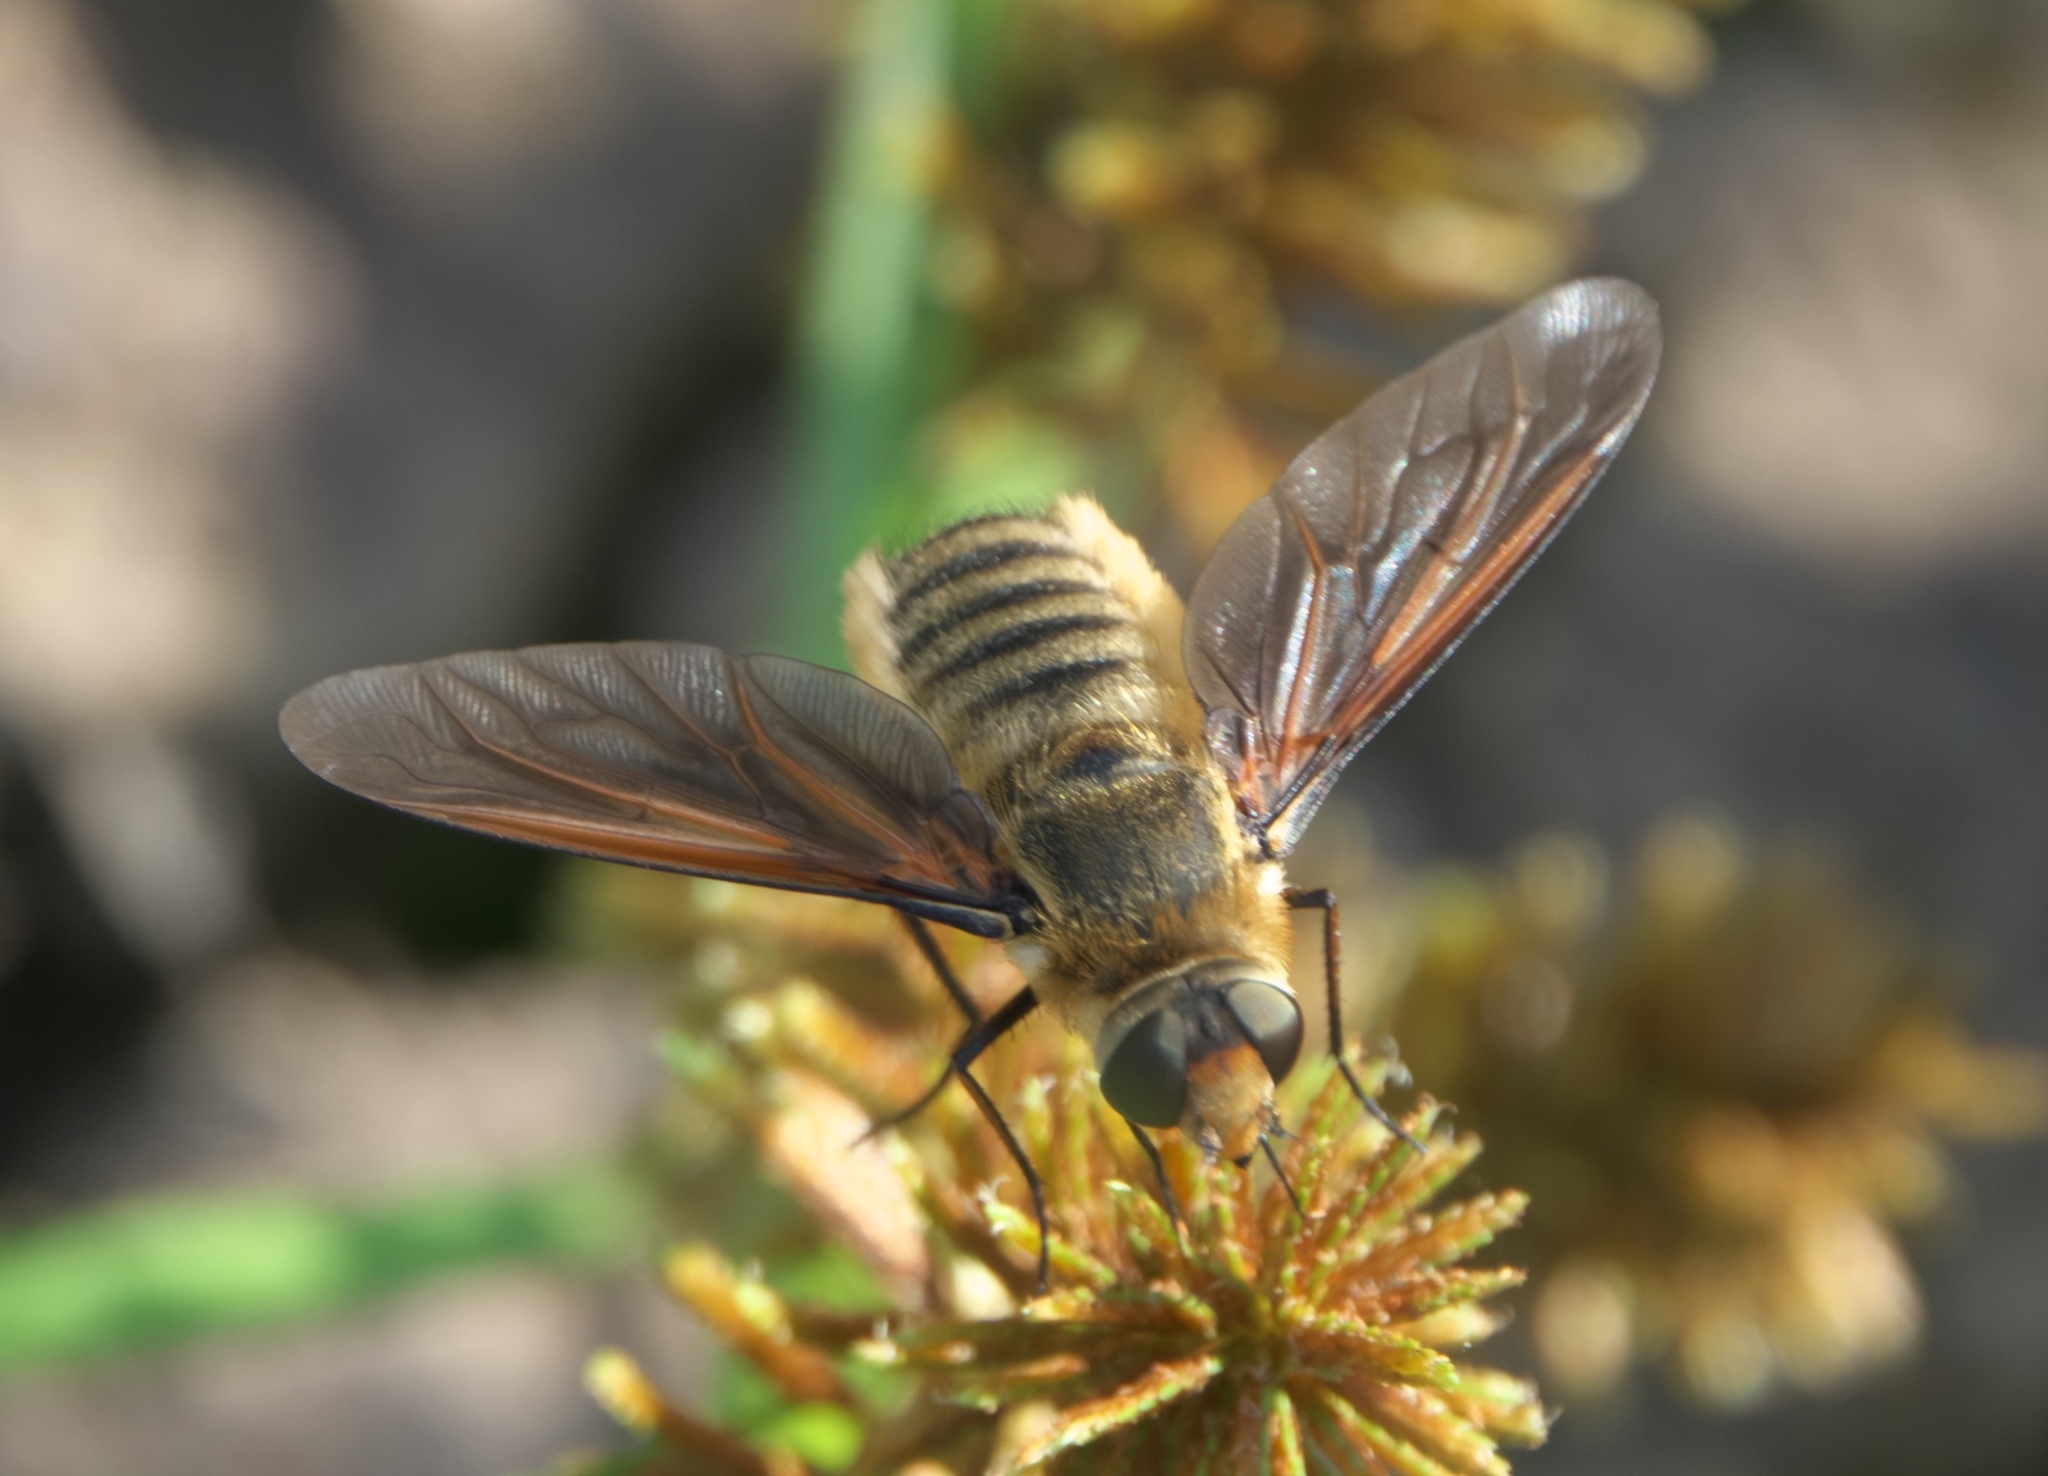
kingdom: Animalia
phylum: Arthropoda
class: Insecta
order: Diptera
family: Bombyliidae
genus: Poecilanthrax
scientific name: Poecilanthrax lucifer
